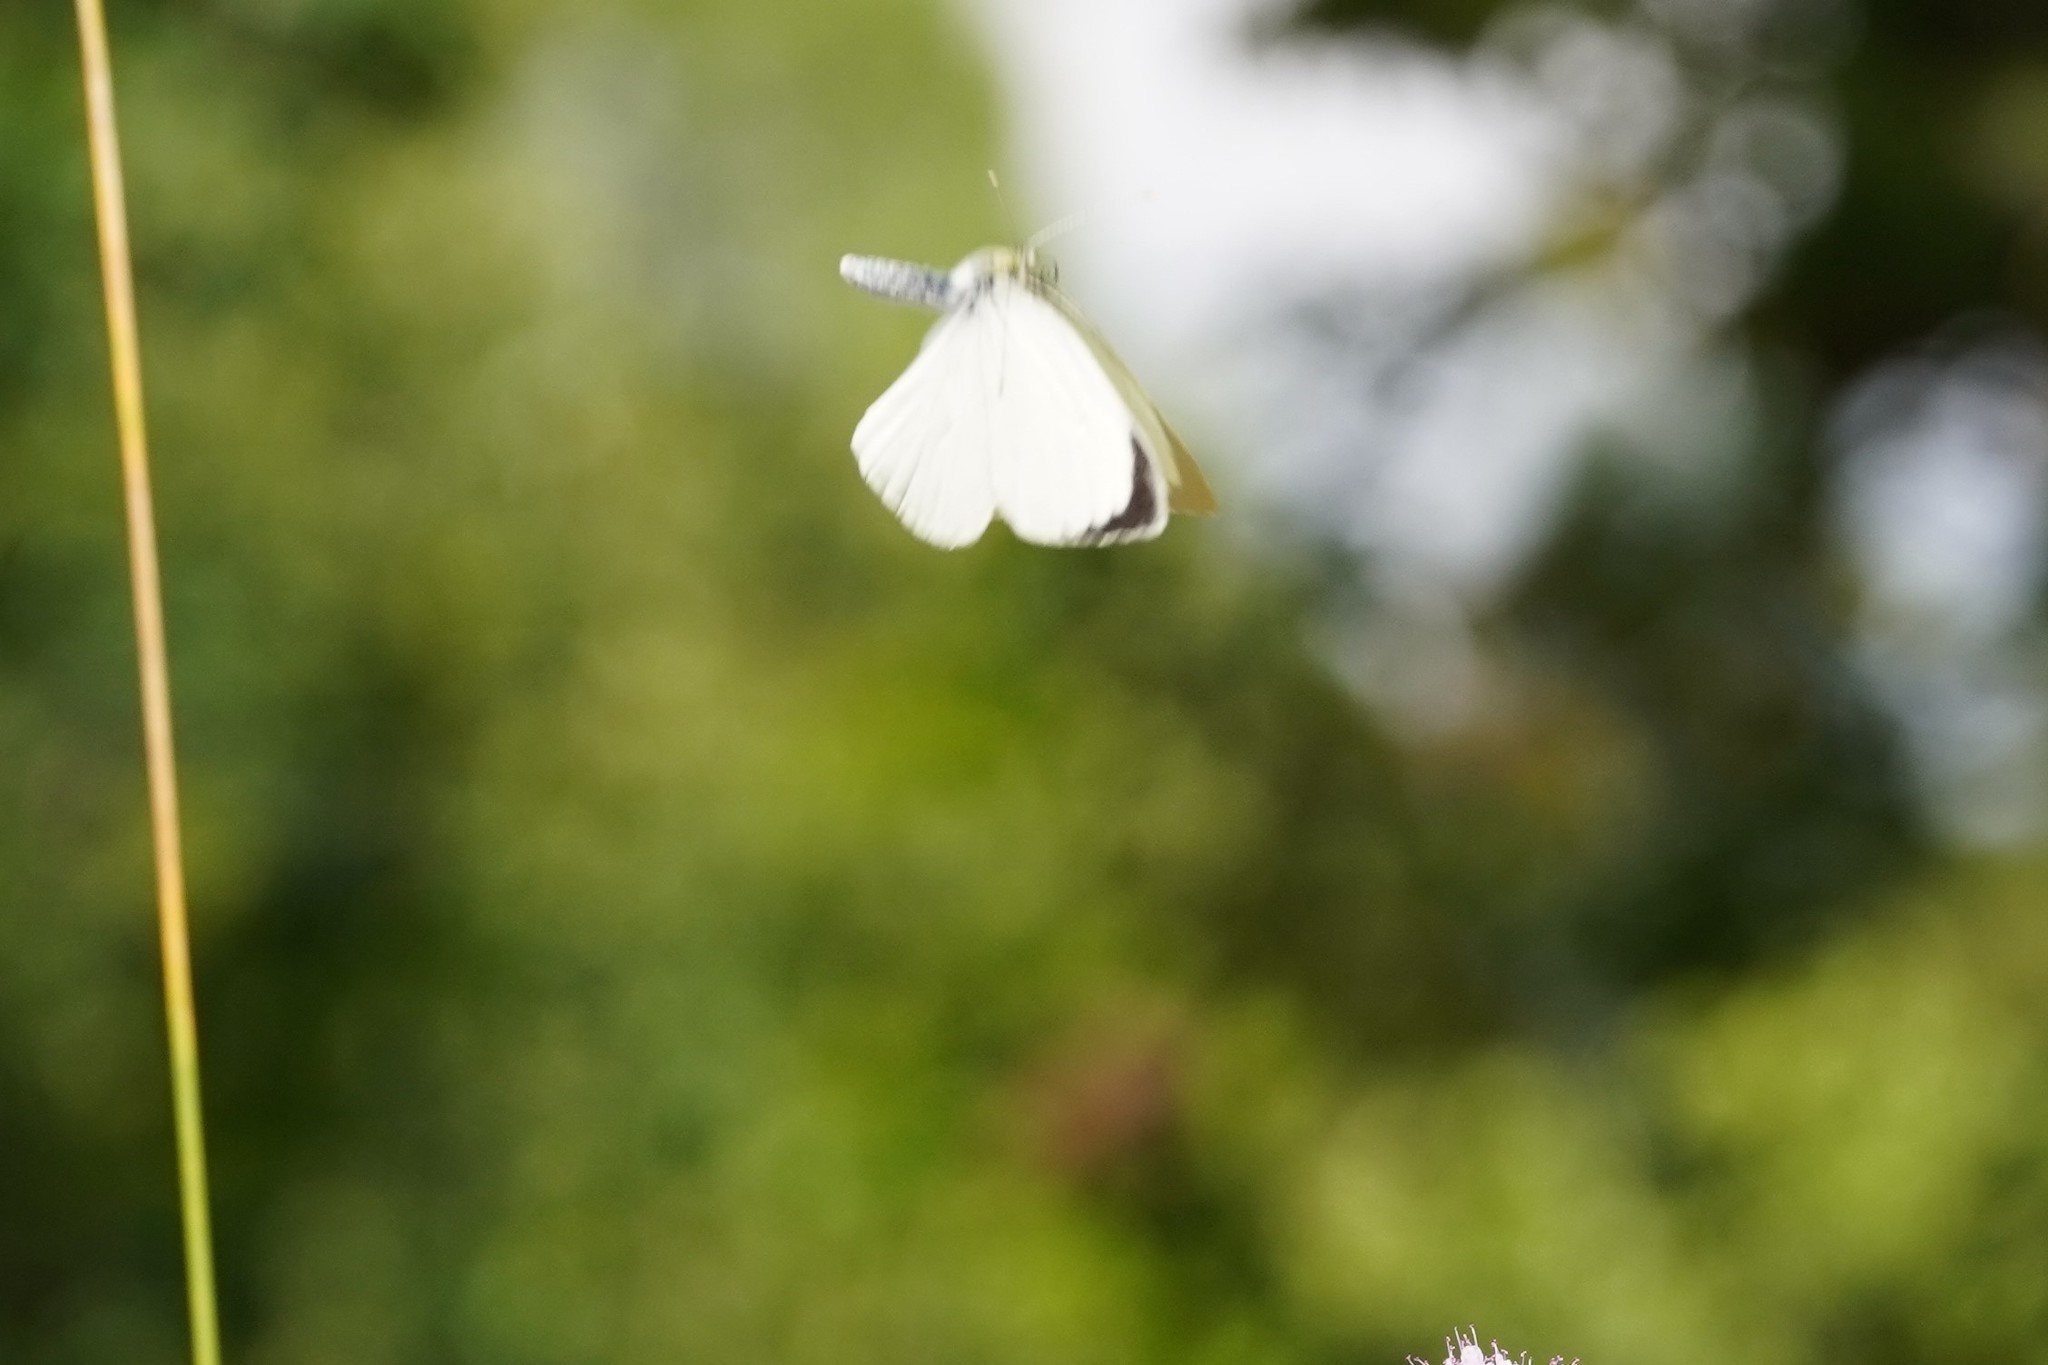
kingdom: Animalia
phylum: Arthropoda
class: Insecta
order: Lepidoptera
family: Pieridae
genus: Pieris
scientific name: Pieris brassicae
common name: Large white
